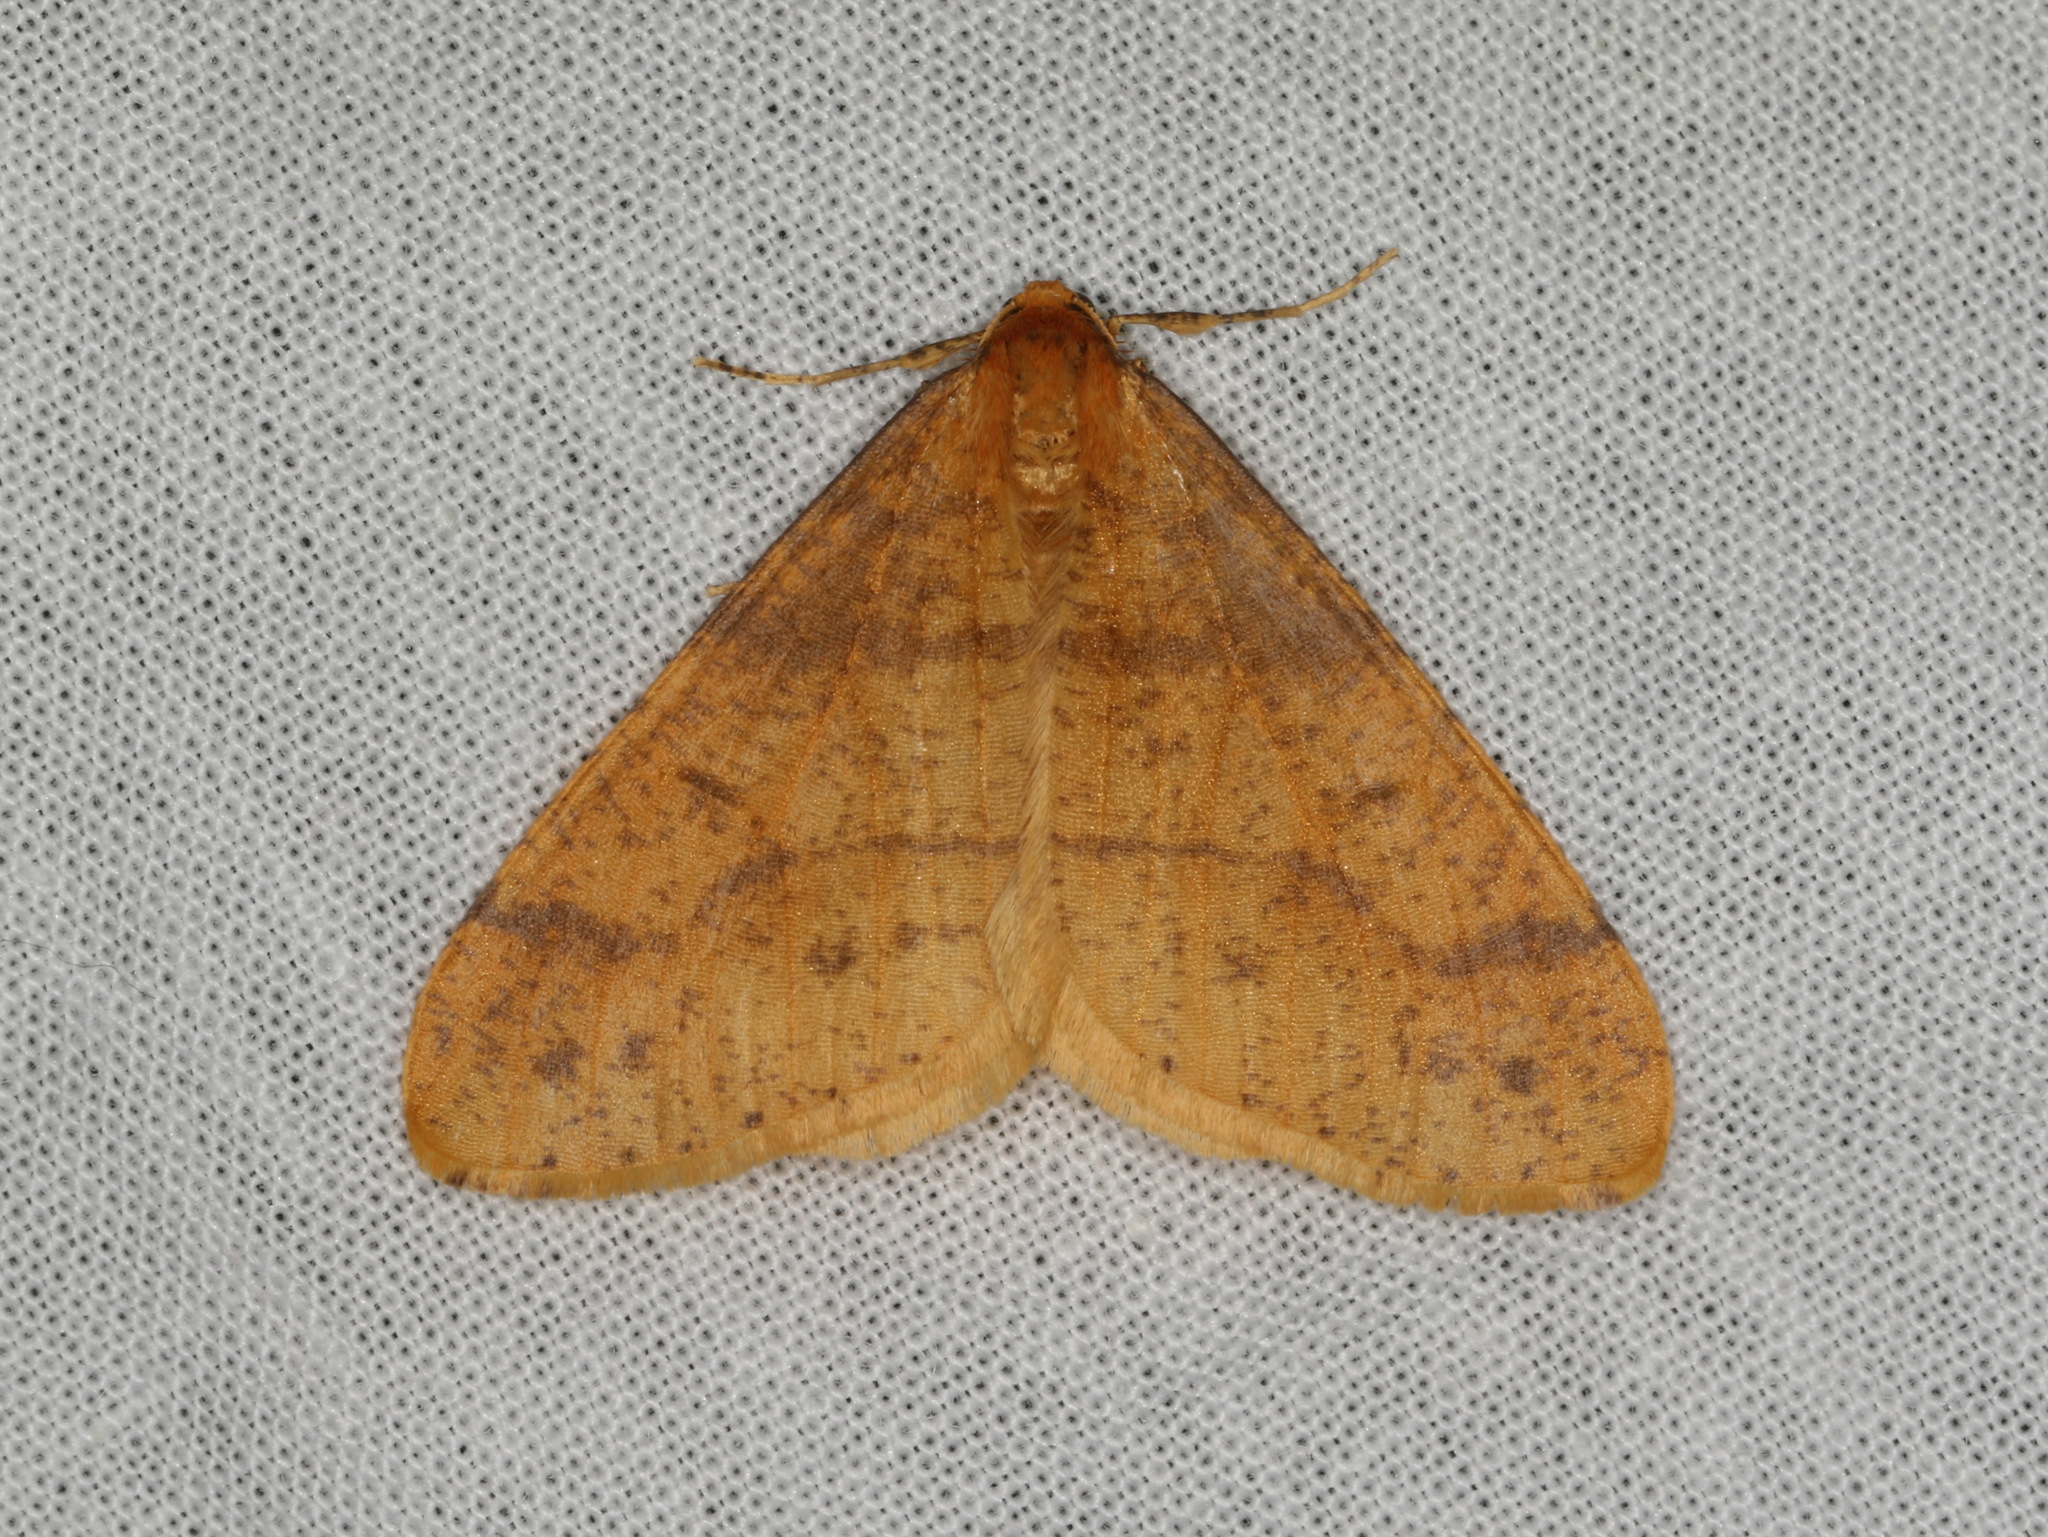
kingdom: Animalia
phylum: Arthropoda
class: Insecta
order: Lepidoptera
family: Geometridae
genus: Agriopis
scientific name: Agriopis aurantiaria
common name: Scarce umber
